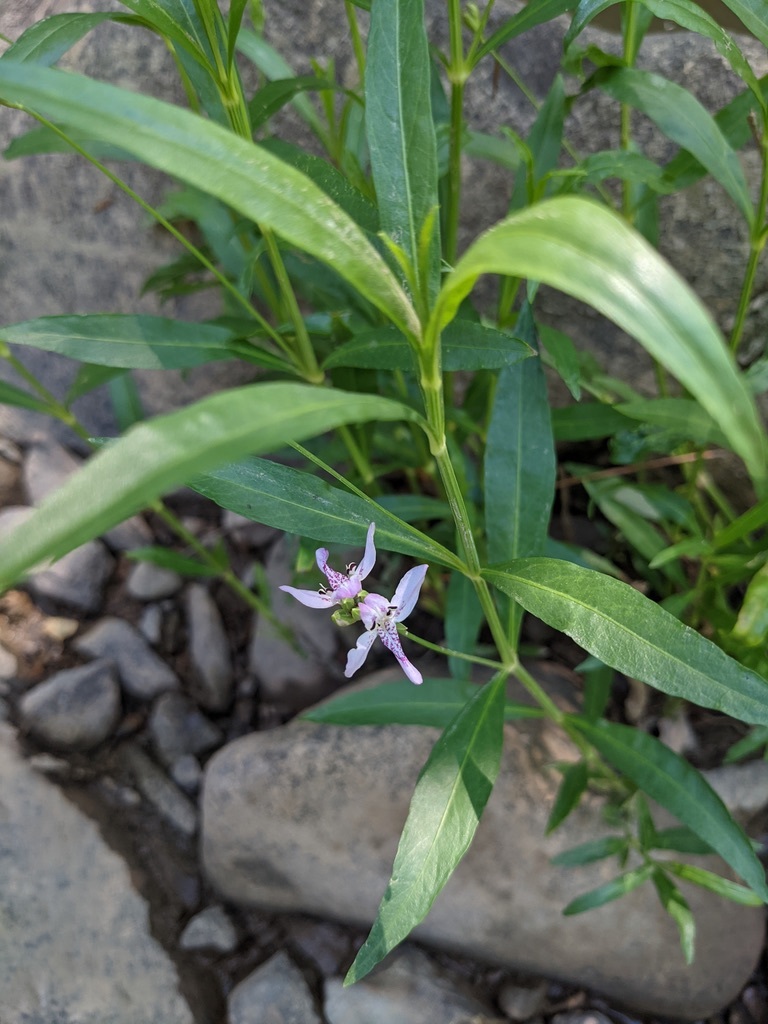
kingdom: Plantae
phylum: Tracheophyta
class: Magnoliopsida
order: Lamiales
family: Acanthaceae
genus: Dianthera
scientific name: Dianthera americana
